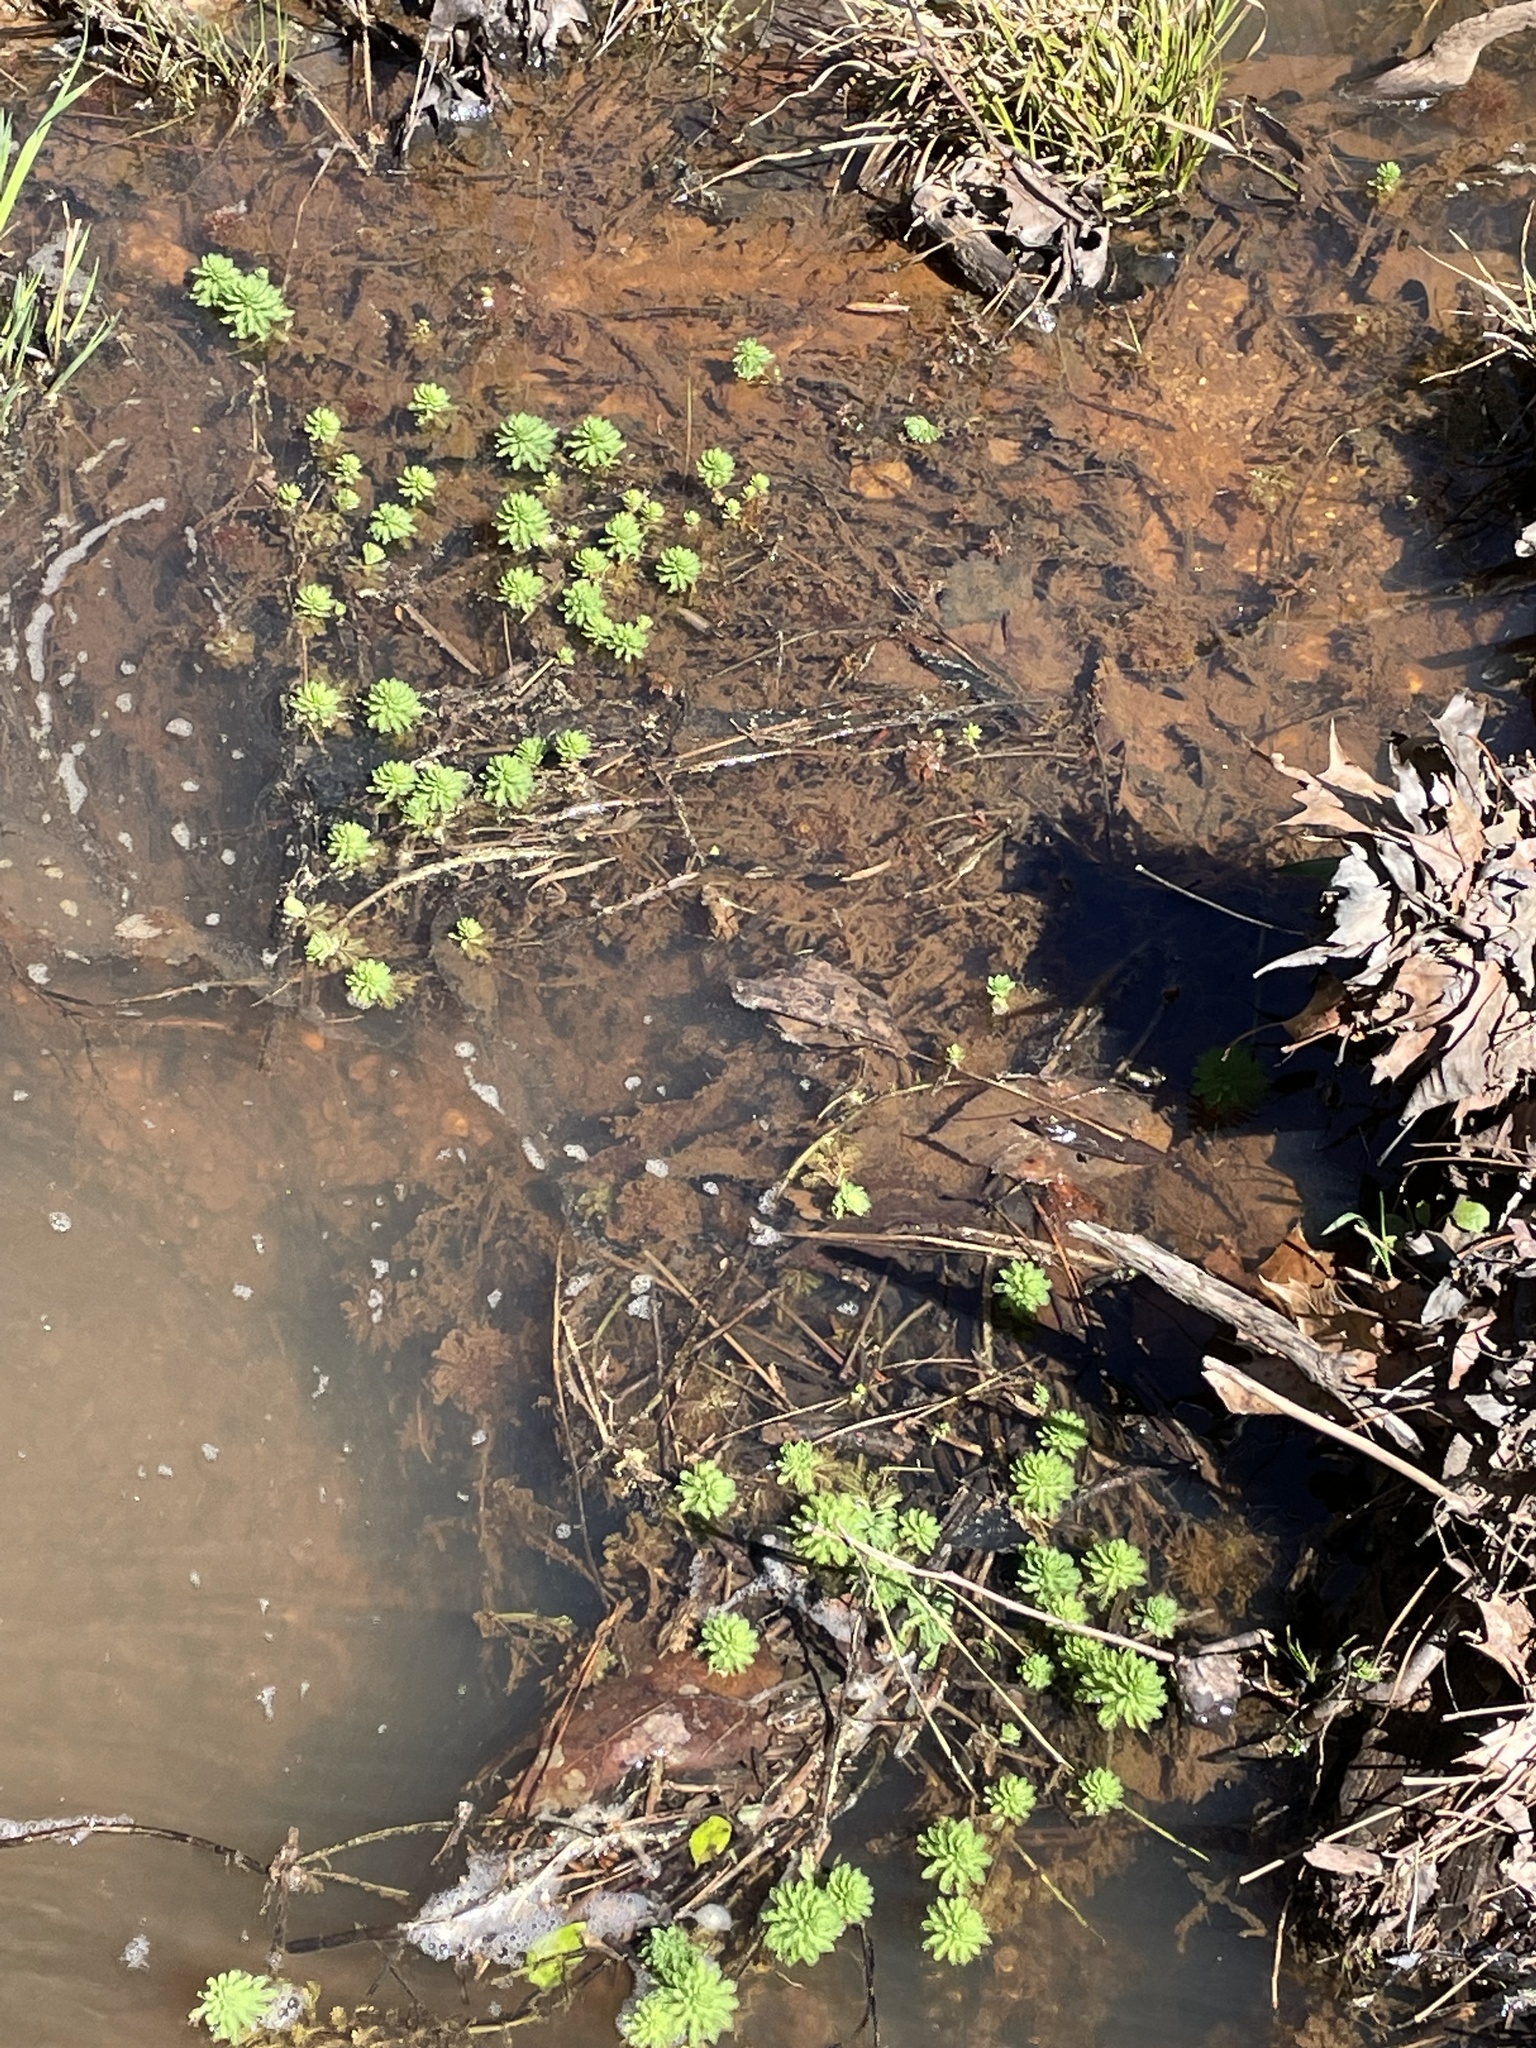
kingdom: Plantae
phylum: Tracheophyta
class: Magnoliopsida
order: Saxifragales
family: Haloragaceae
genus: Myriophyllum
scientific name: Myriophyllum aquaticum
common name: Parrot's feather
